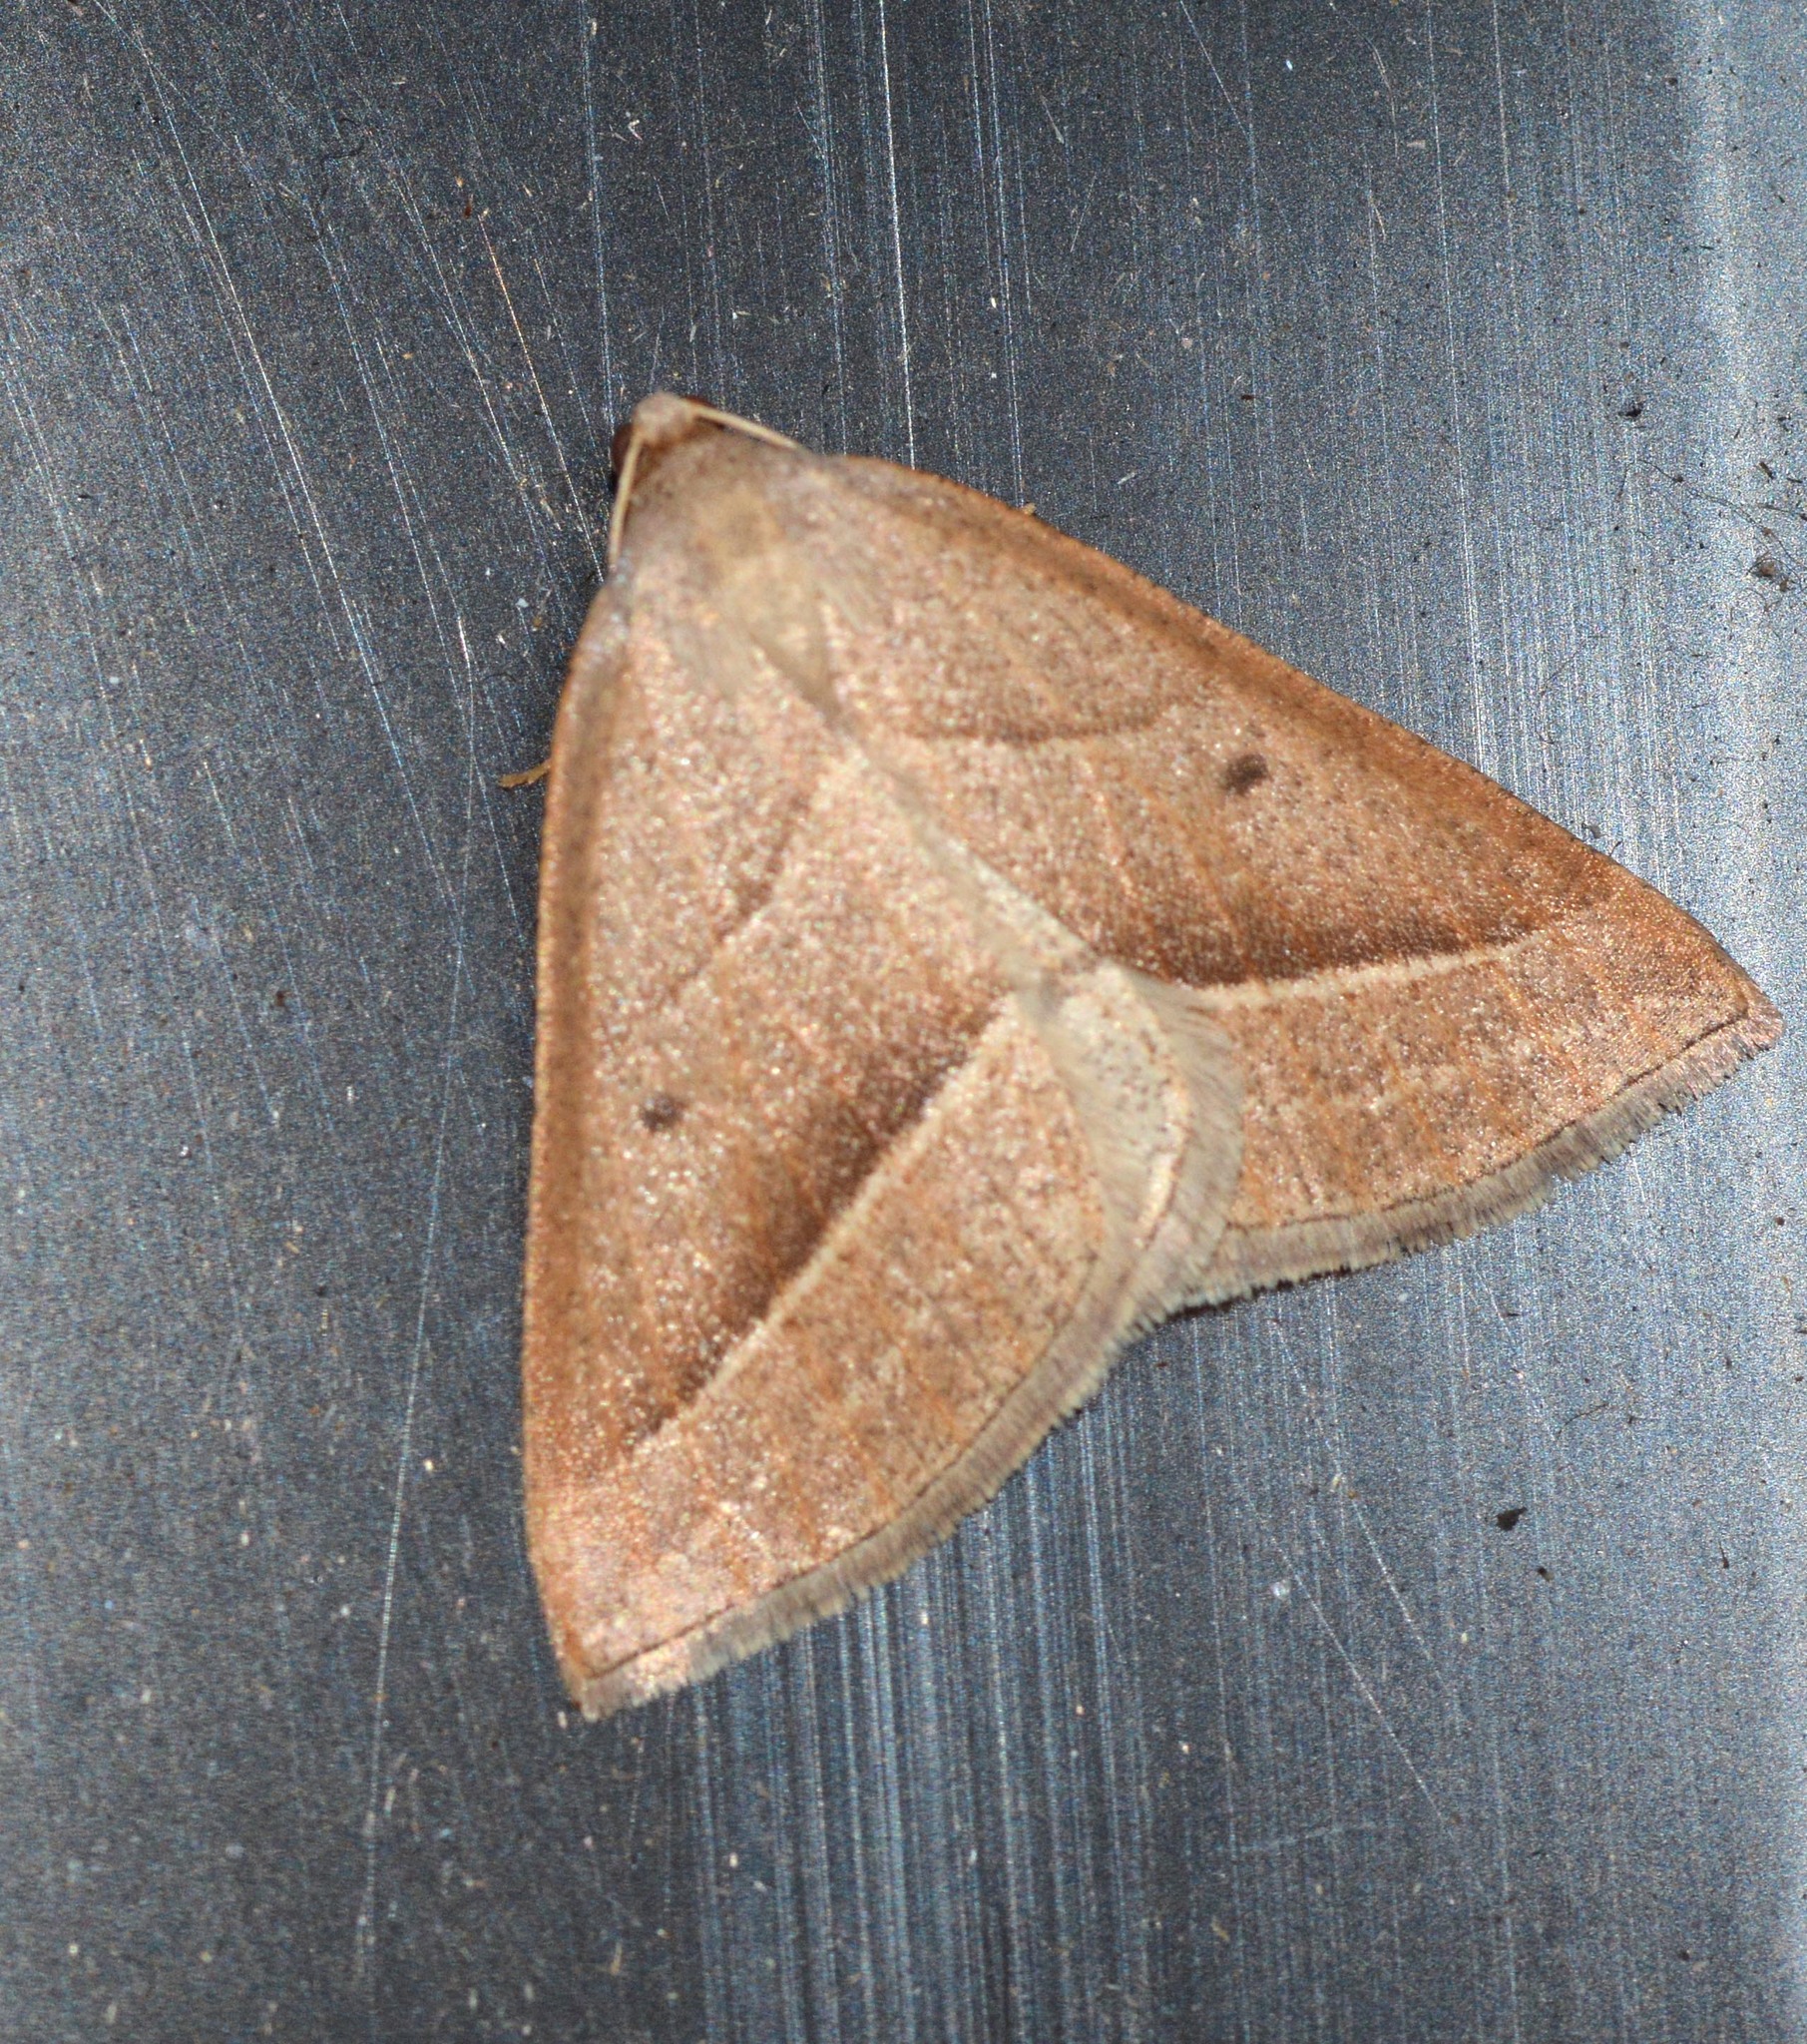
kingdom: Animalia
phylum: Arthropoda
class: Insecta
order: Lepidoptera
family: Pterophoridae
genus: Pterophorus
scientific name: Pterophorus Petrophora chlorosata
